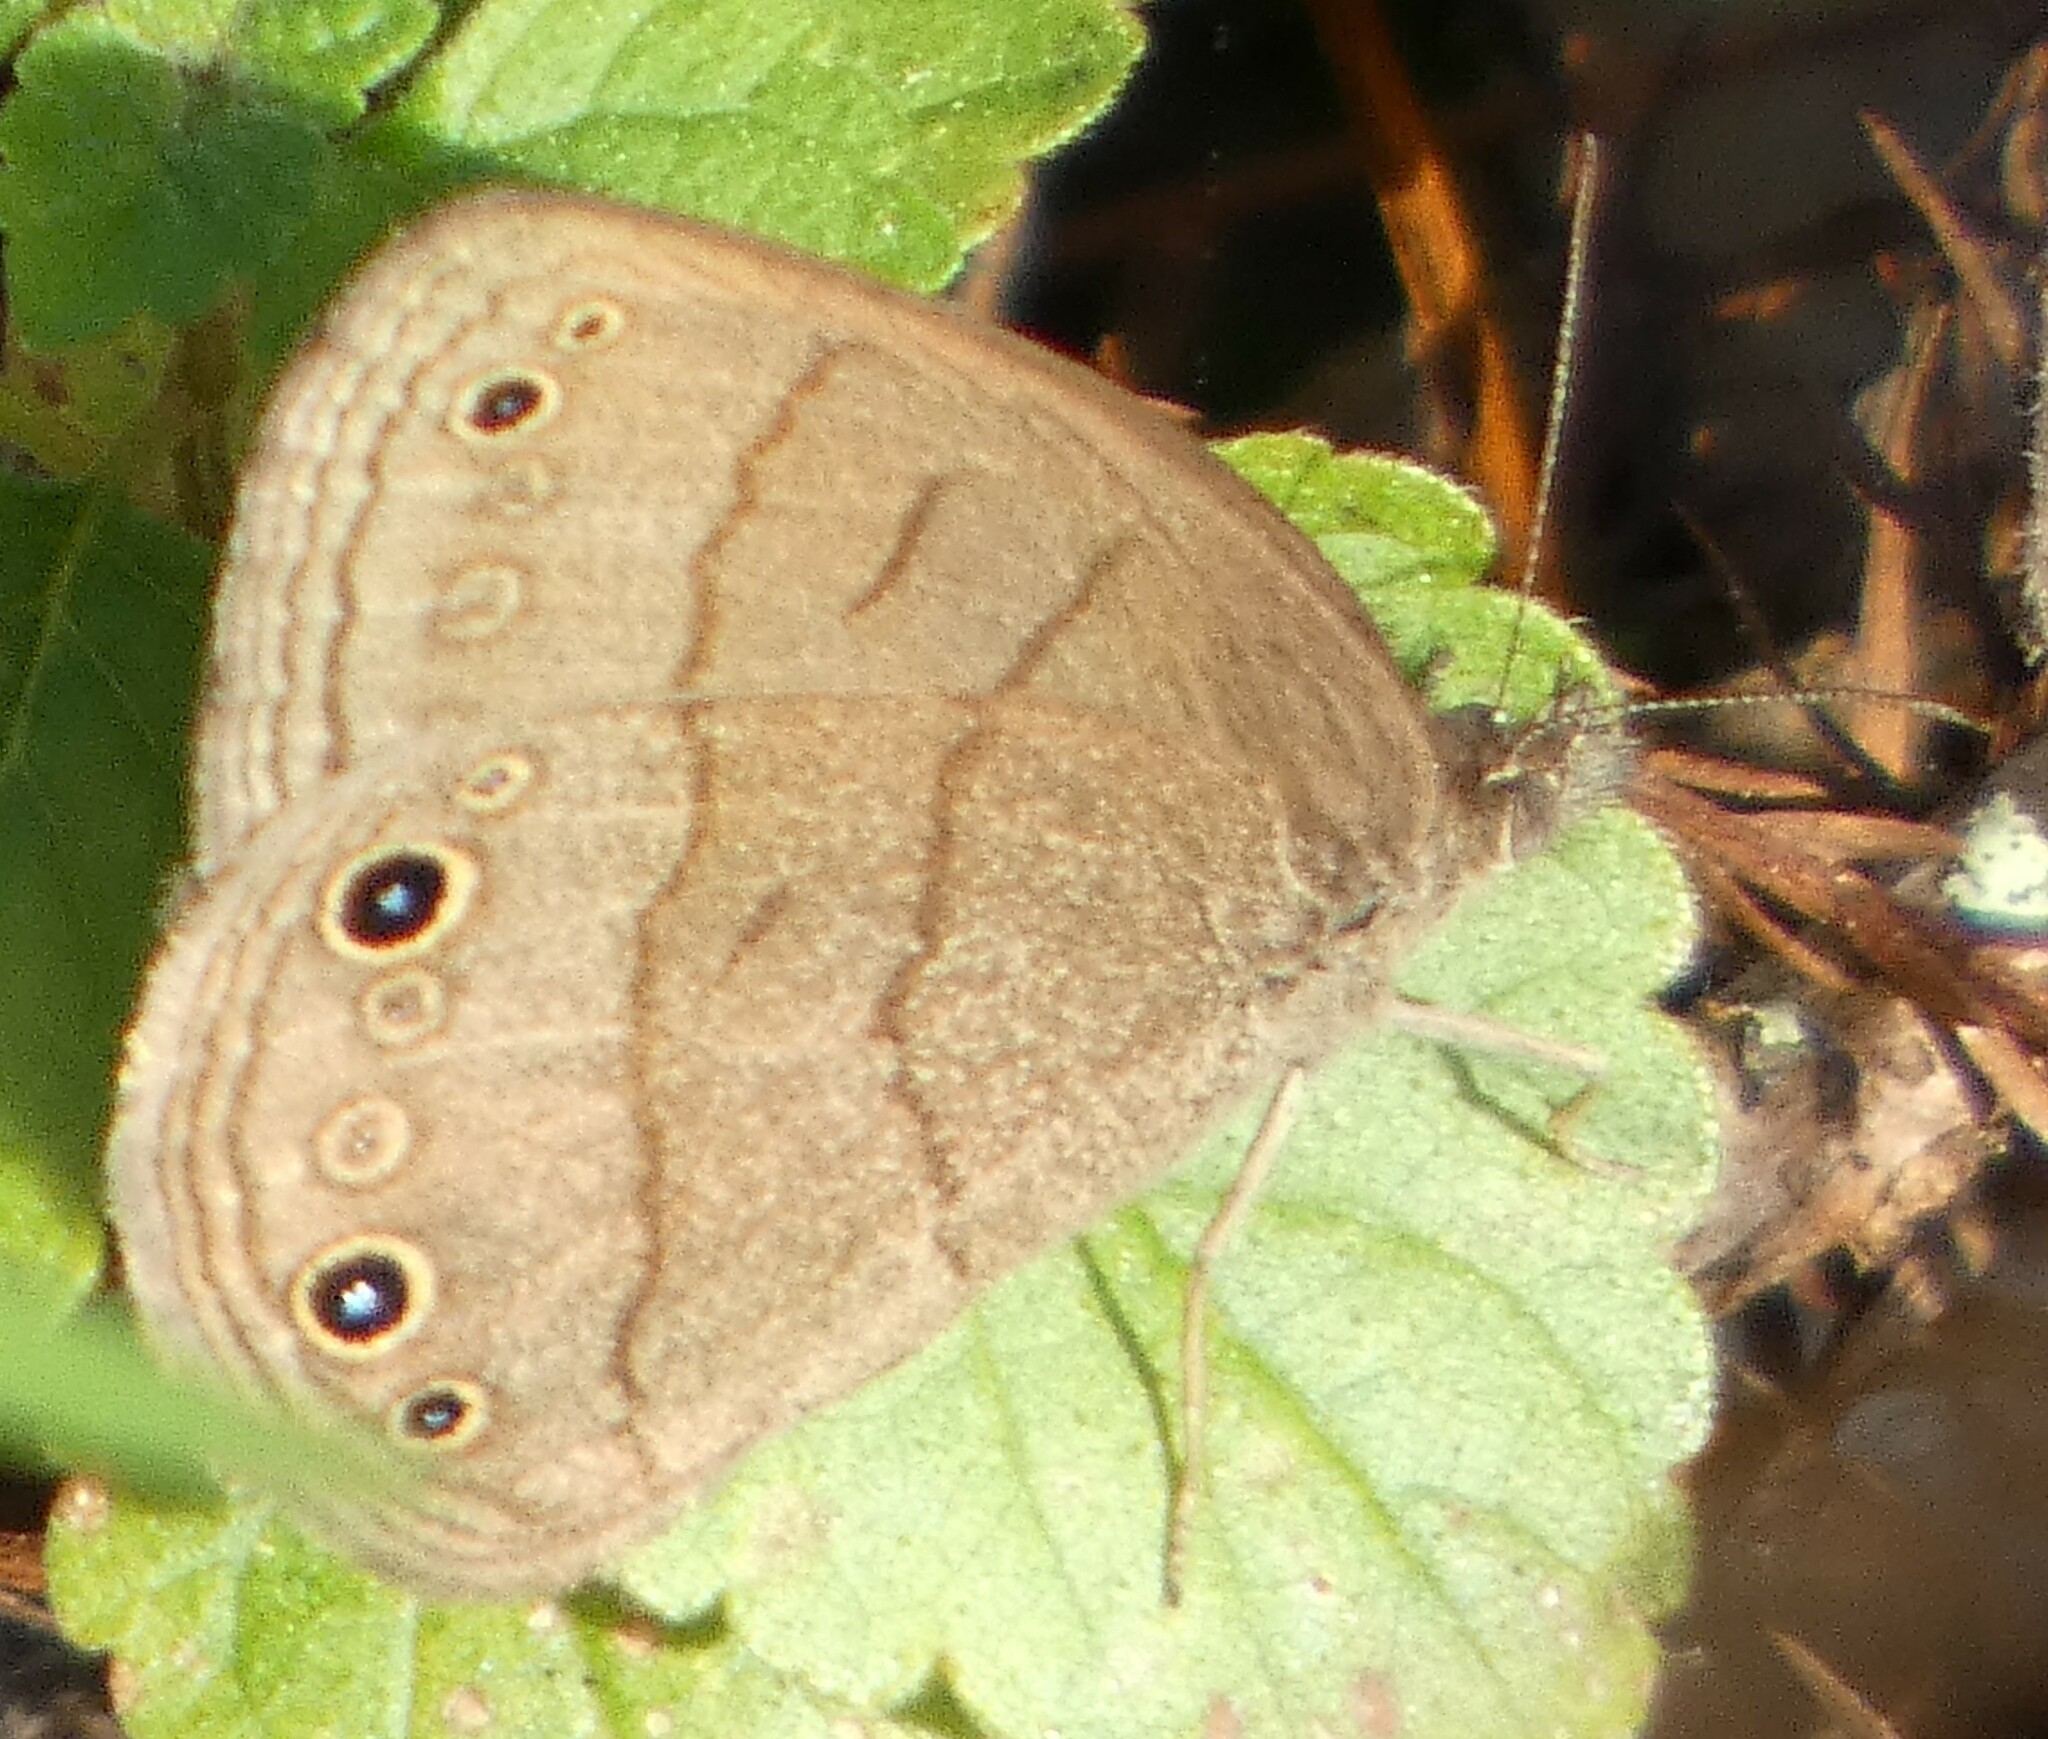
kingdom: Animalia
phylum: Arthropoda
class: Insecta
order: Lepidoptera
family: Nymphalidae
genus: Hermeuptychia
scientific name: Hermeuptychia hermes
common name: Hermes satyr
